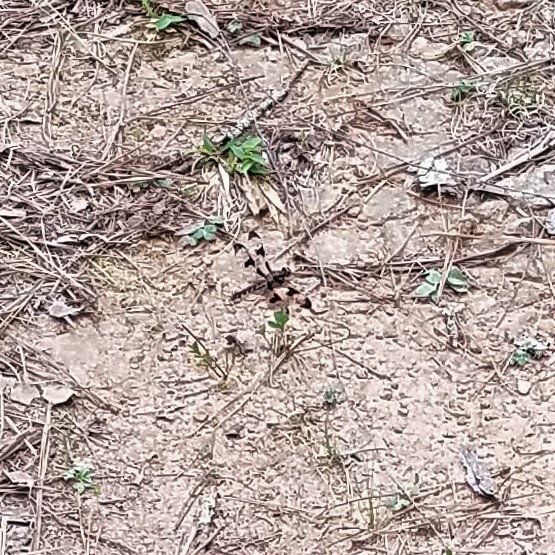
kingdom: Animalia
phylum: Arthropoda
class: Insecta
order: Odonata
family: Libellulidae
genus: Plathemis
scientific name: Plathemis lydia
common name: Common whitetail
